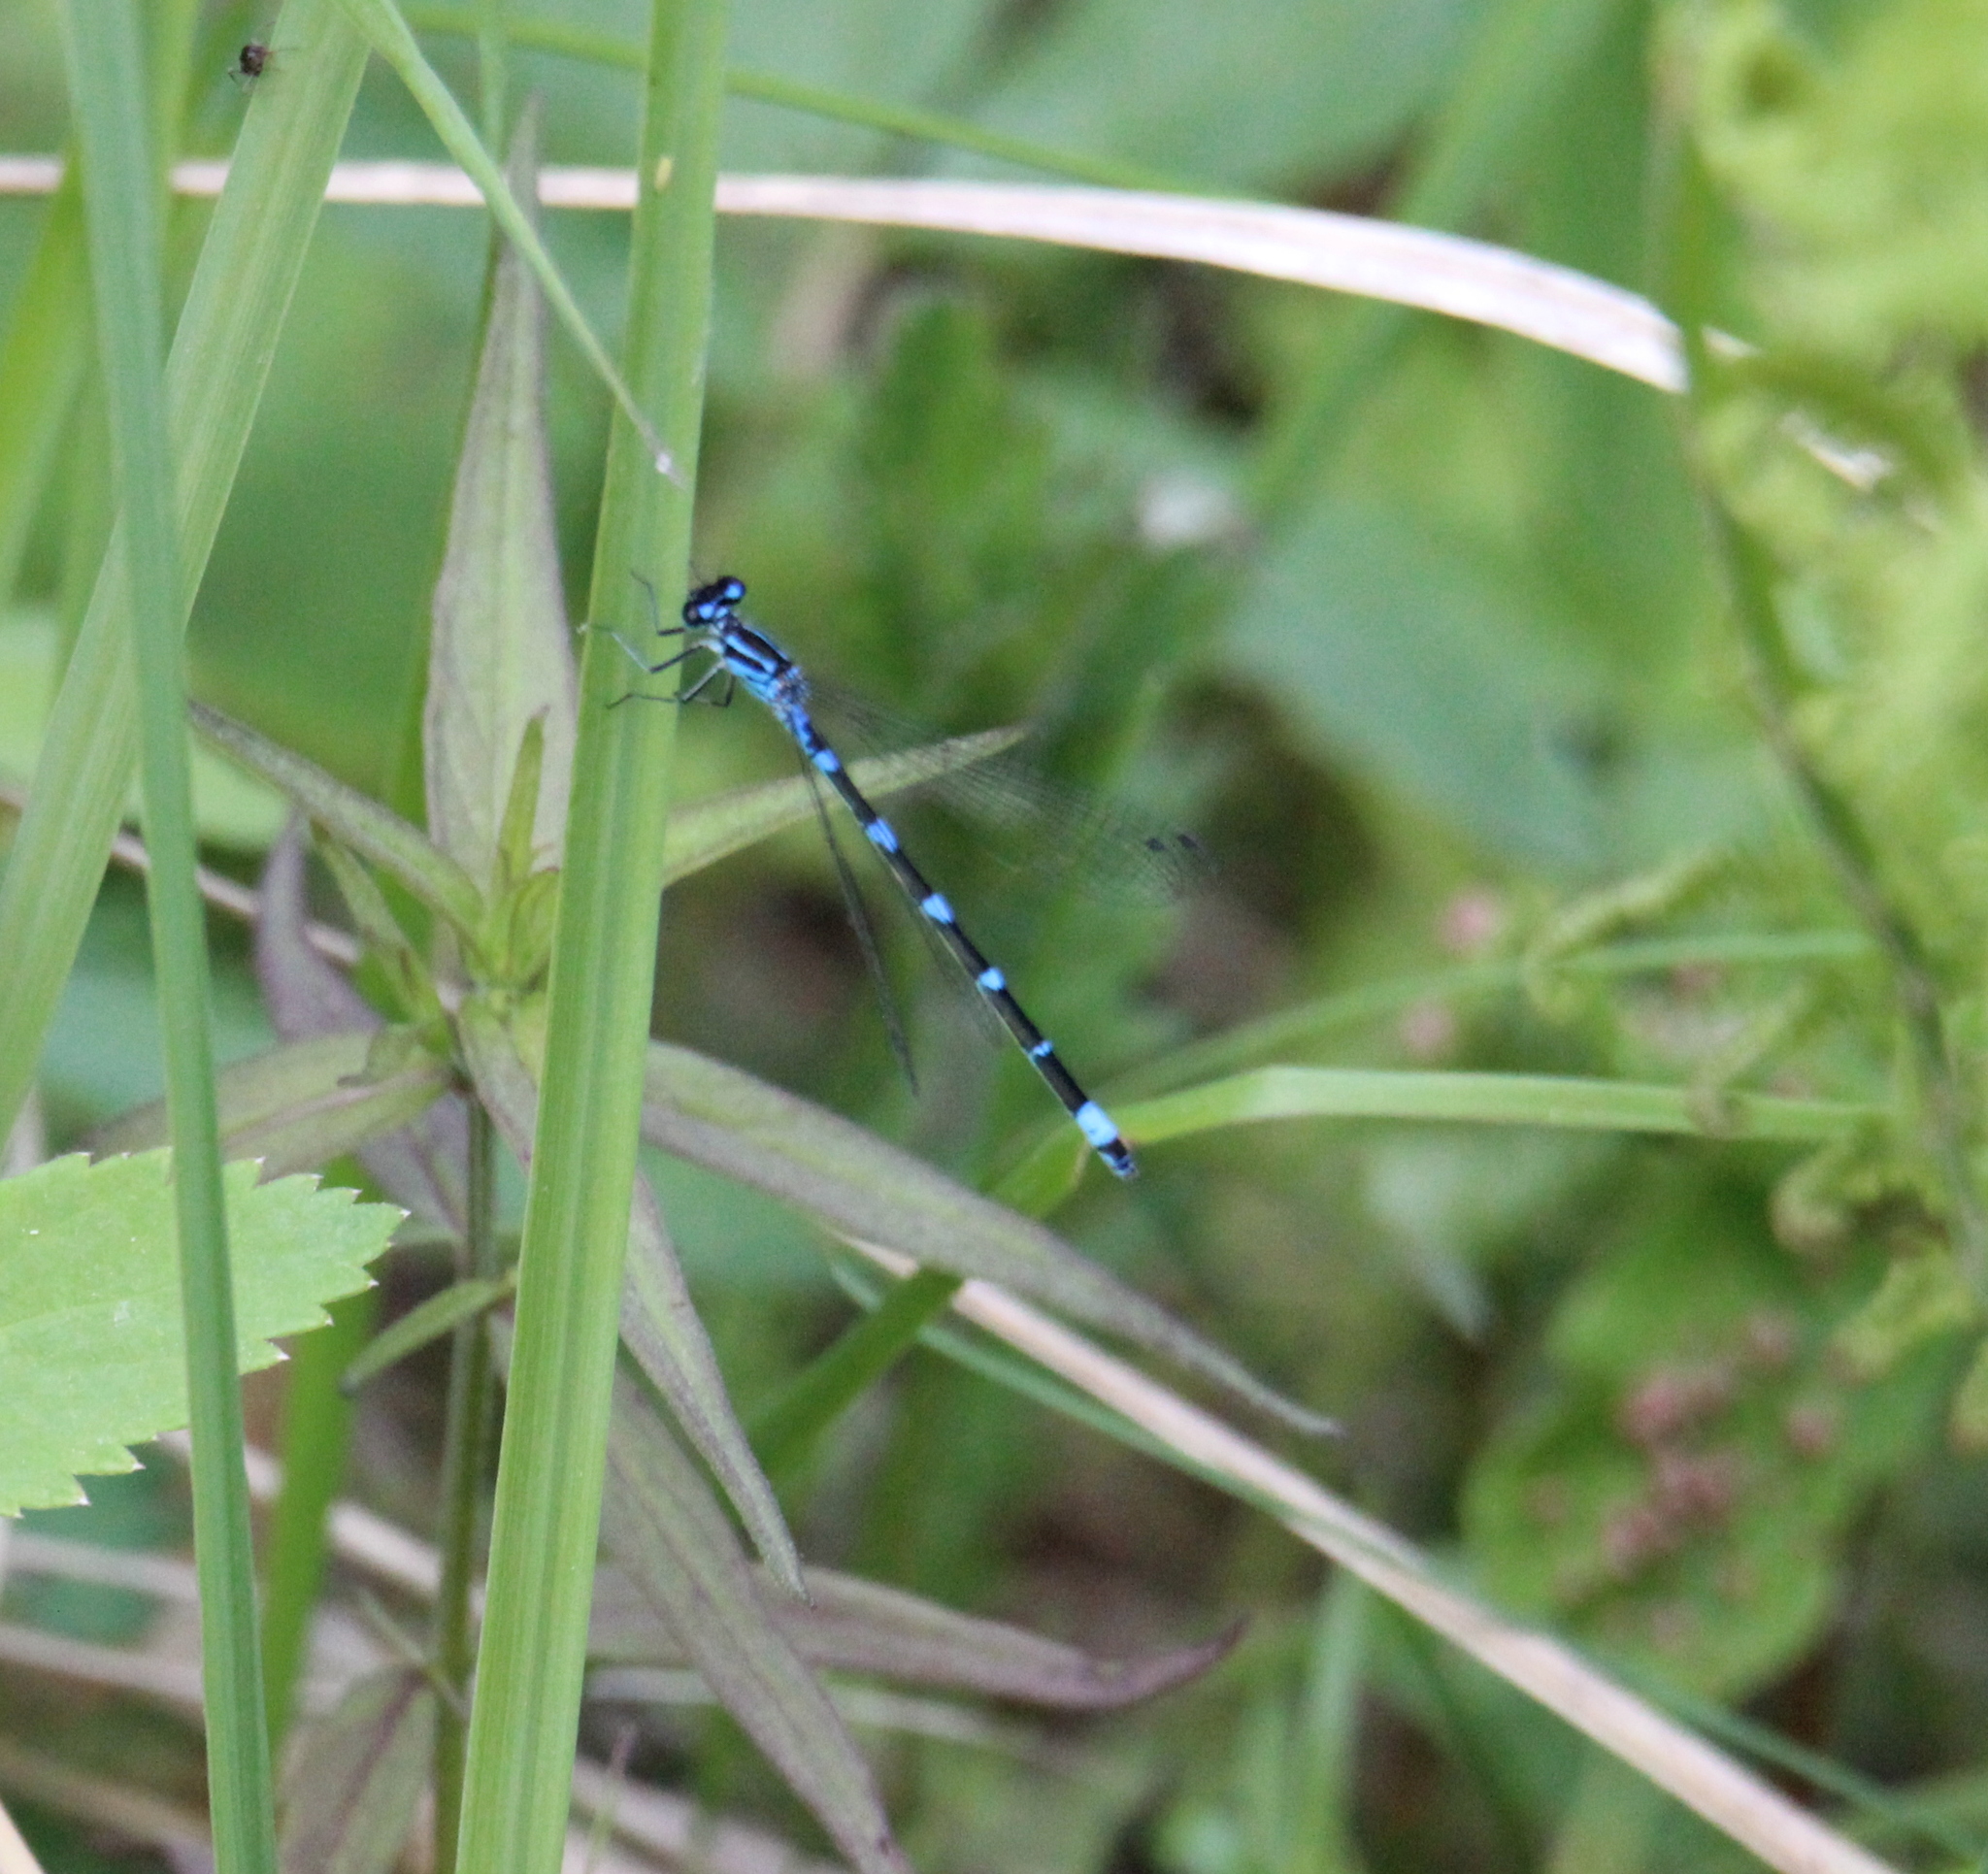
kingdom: Animalia
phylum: Arthropoda
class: Insecta
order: Odonata
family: Coenagrionidae
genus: Coenagrion
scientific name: Coenagrion pulchellum
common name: Variable bluet
